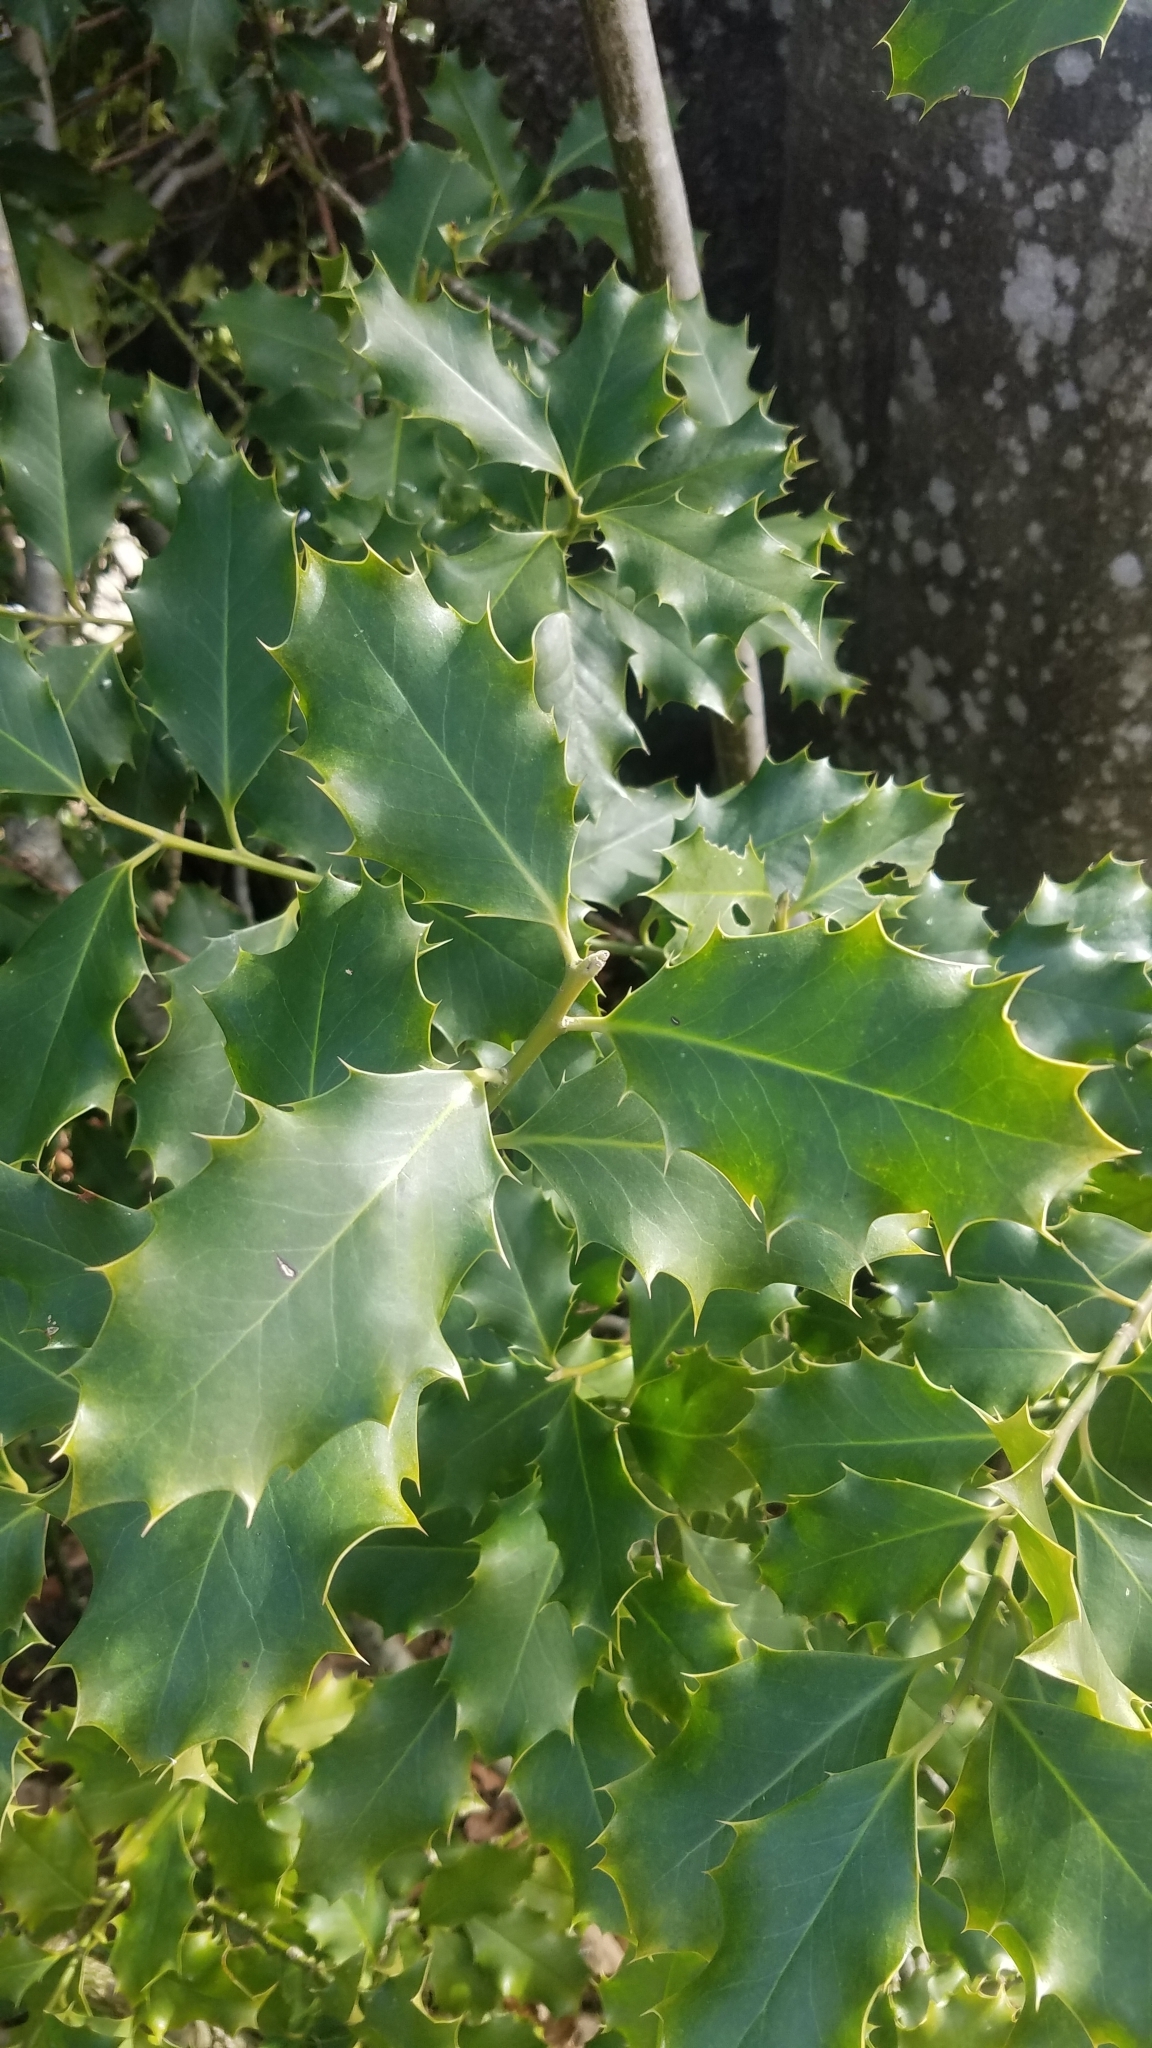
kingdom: Plantae
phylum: Tracheophyta
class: Magnoliopsida
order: Aquifoliales
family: Aquifoliaceae
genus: Ilex
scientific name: Ilex aquifolium
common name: English holly
